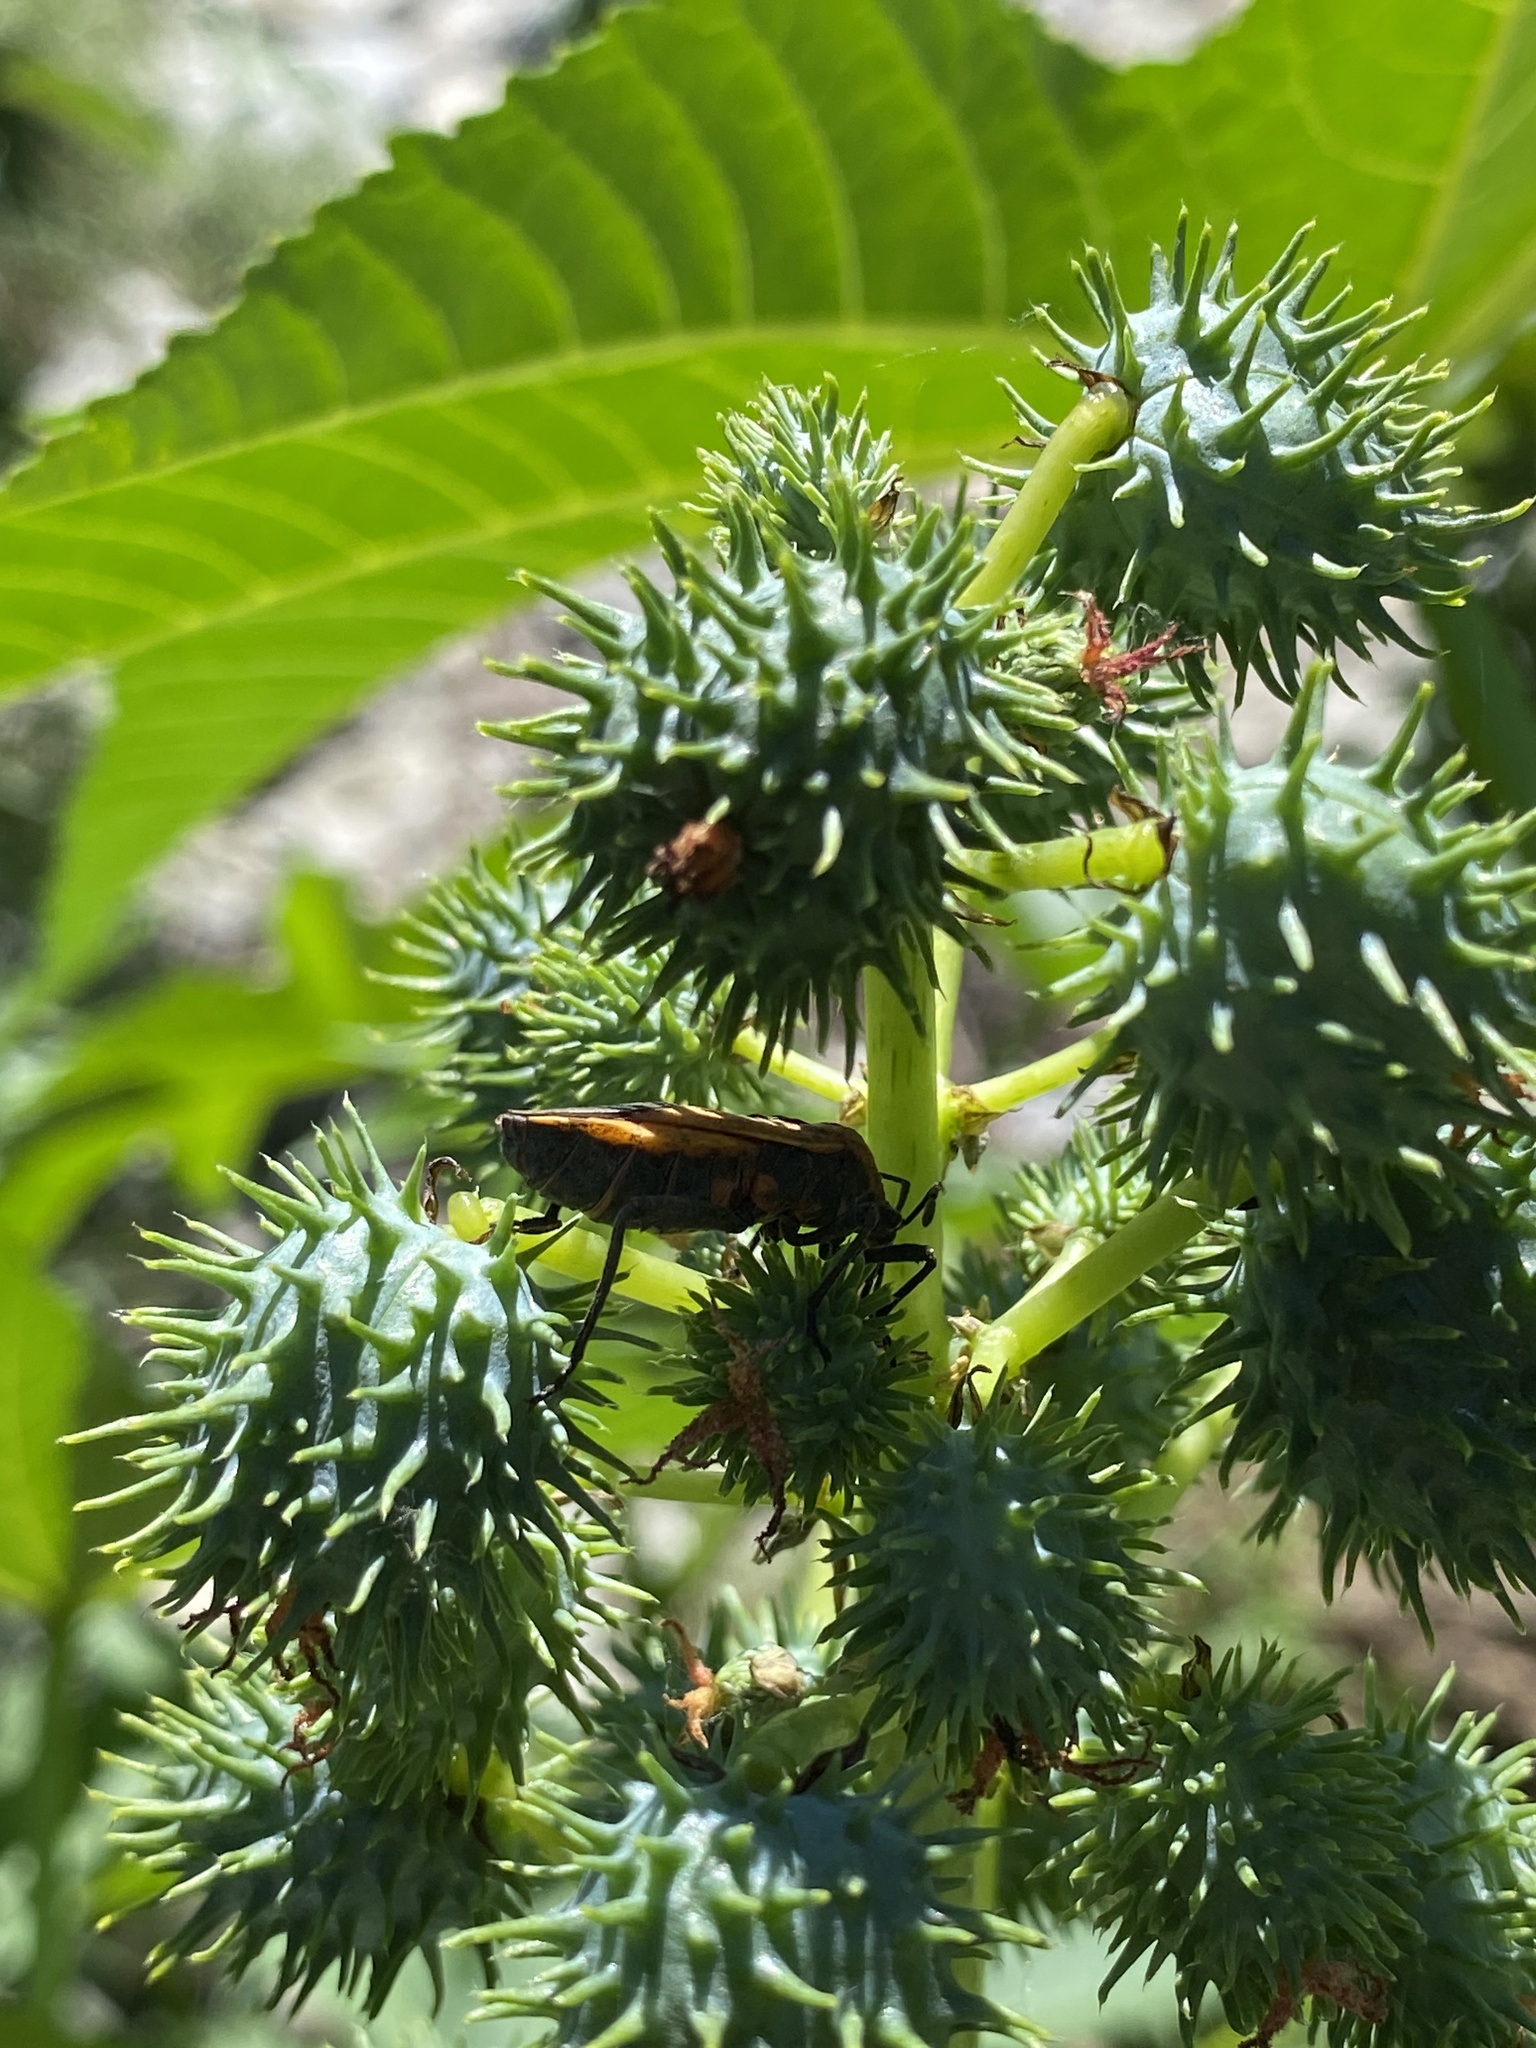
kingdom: Animalia
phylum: Arthropoda
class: Insecta
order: Hemiptera
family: Coreidae
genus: Sagotylus
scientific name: Sagotylus confluens
